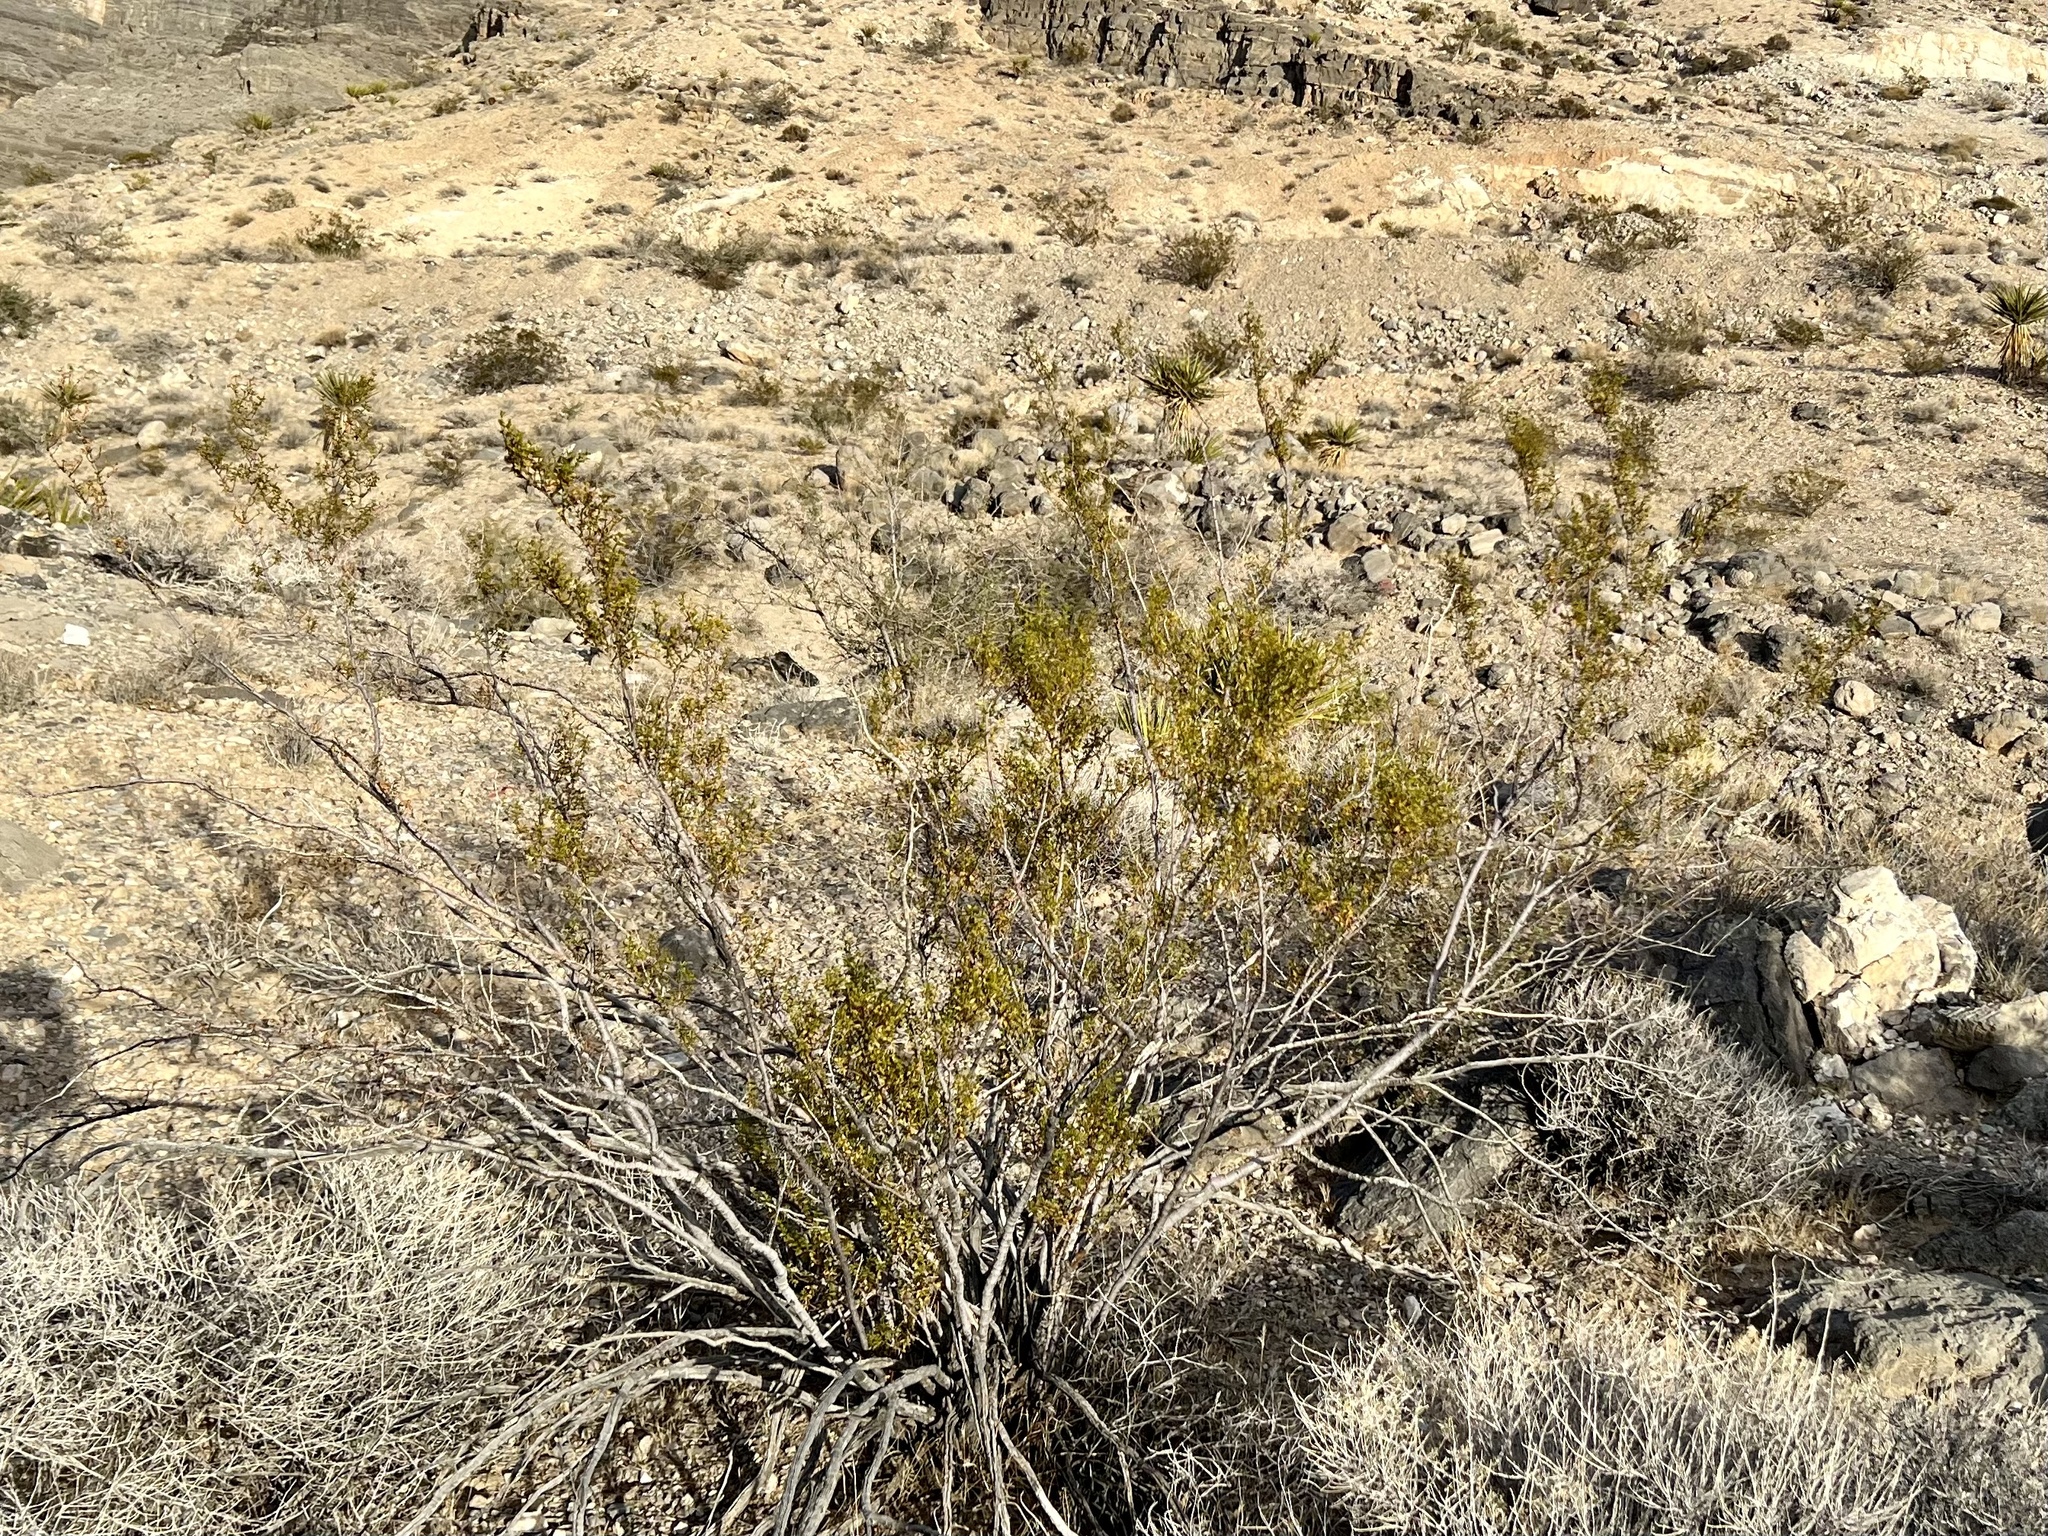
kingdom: Plantae
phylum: Tracheophyta
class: Magnoliopsida
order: Zygophyllales
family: Zygophyllaceae
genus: Larrea
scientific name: Larrea tridentata
